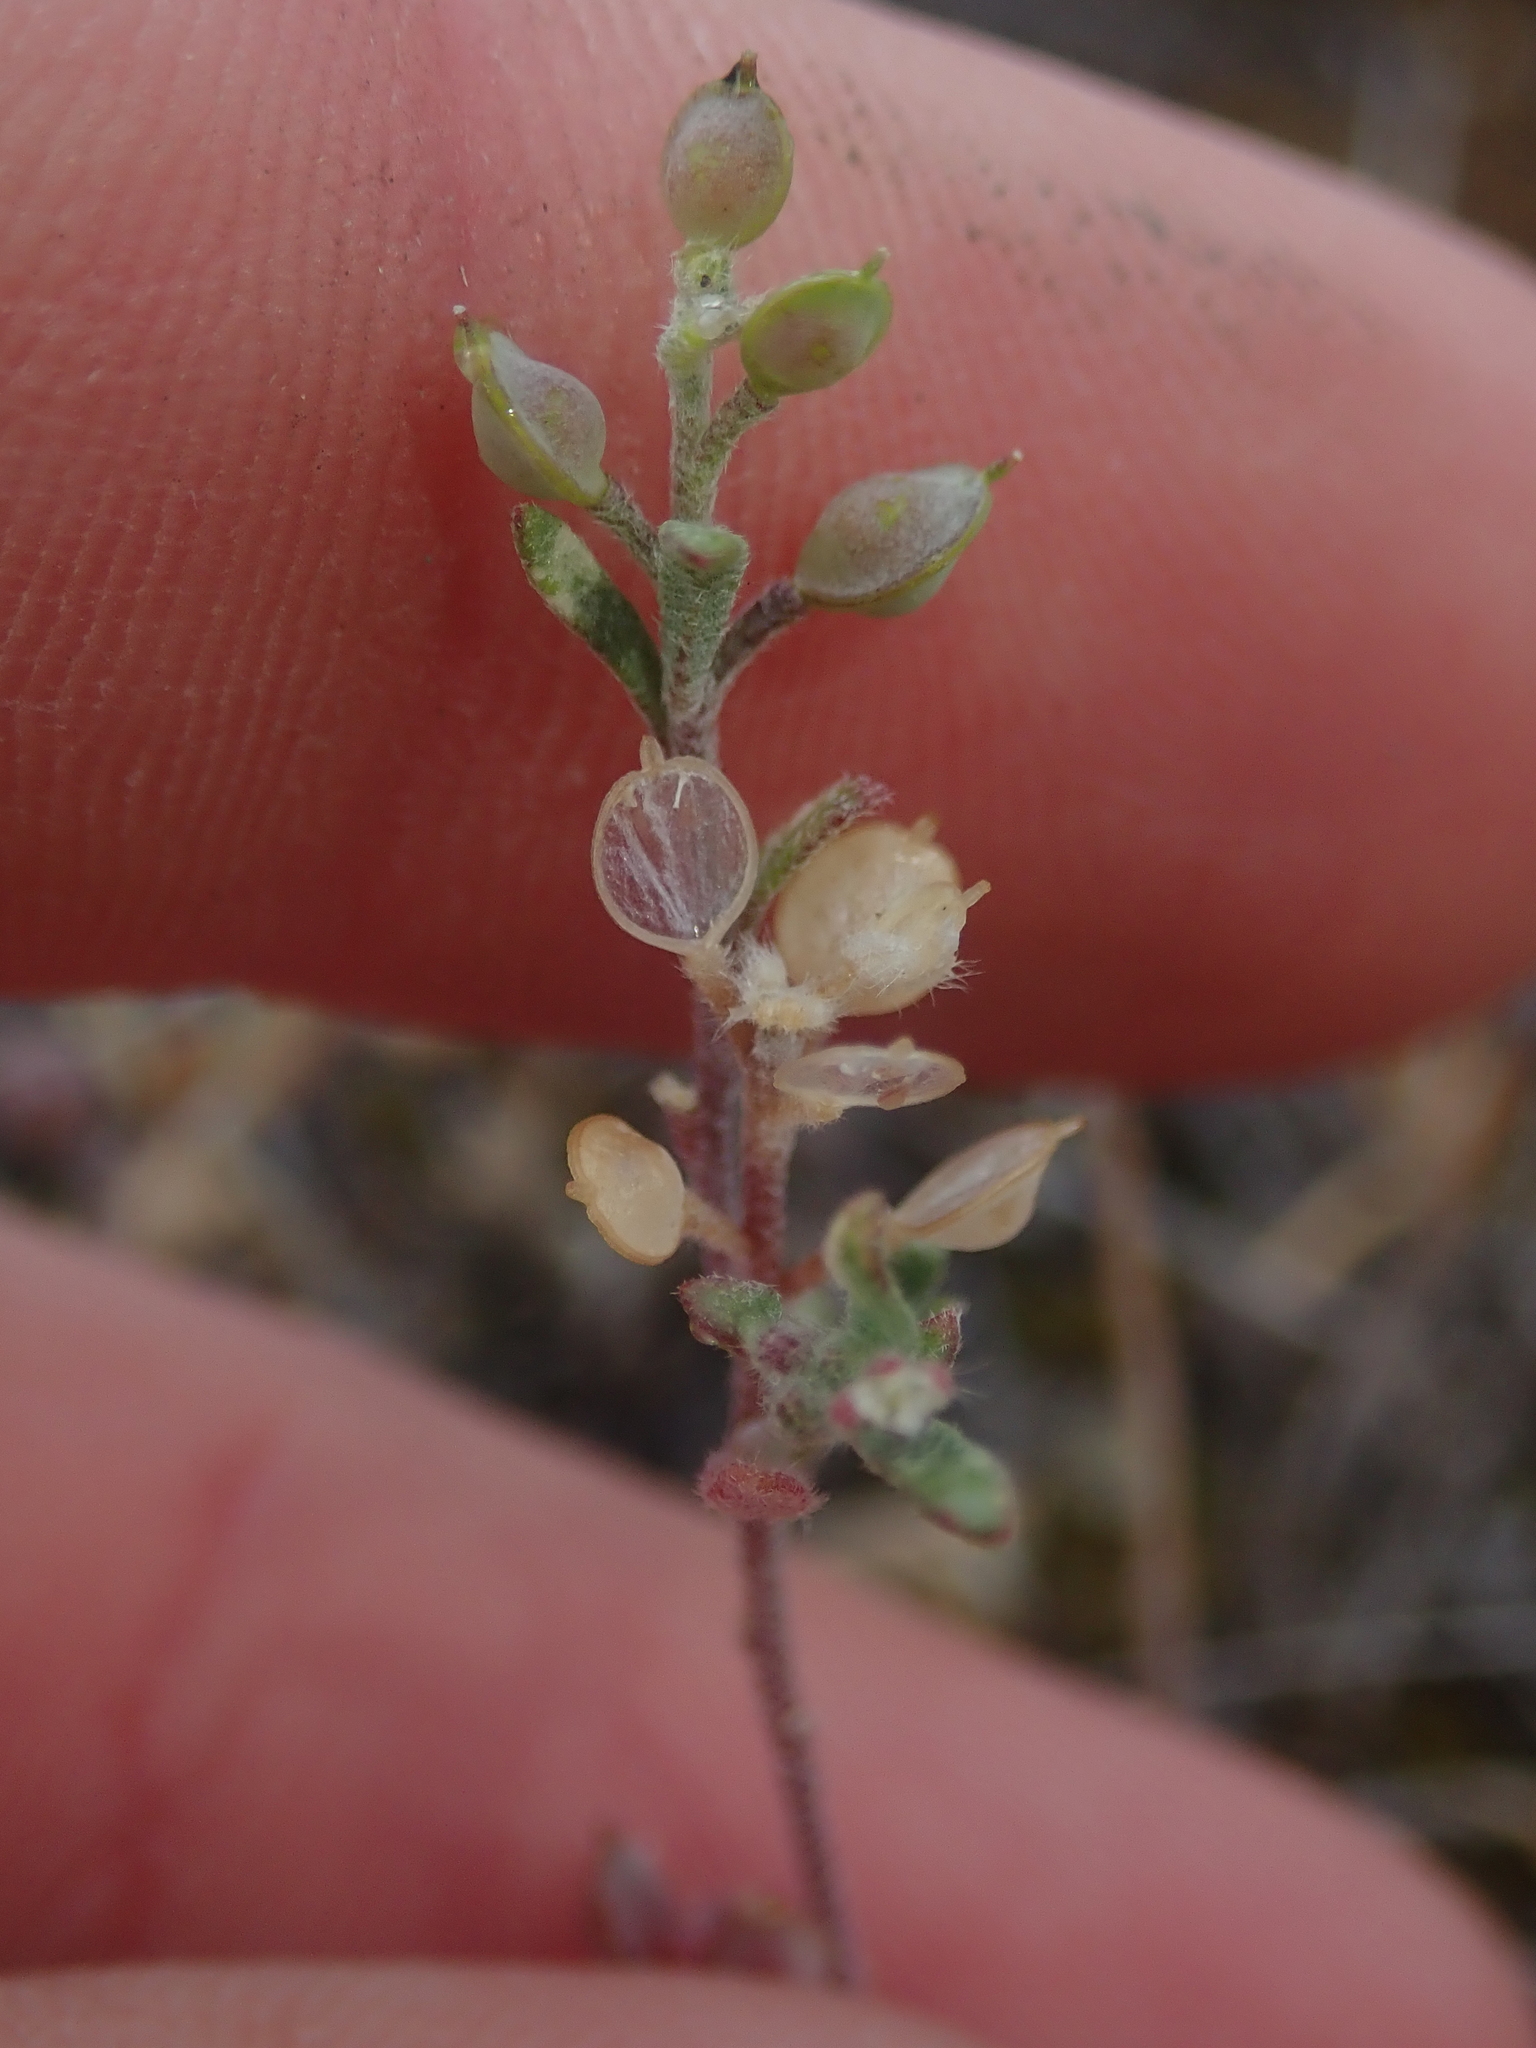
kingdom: Plantae
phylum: Tracheophyta
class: Magnoliopsida
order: Brassicales
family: Brassicaceae
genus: Alyssum
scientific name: Alyssum turkestanicum
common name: Desert alyssum
